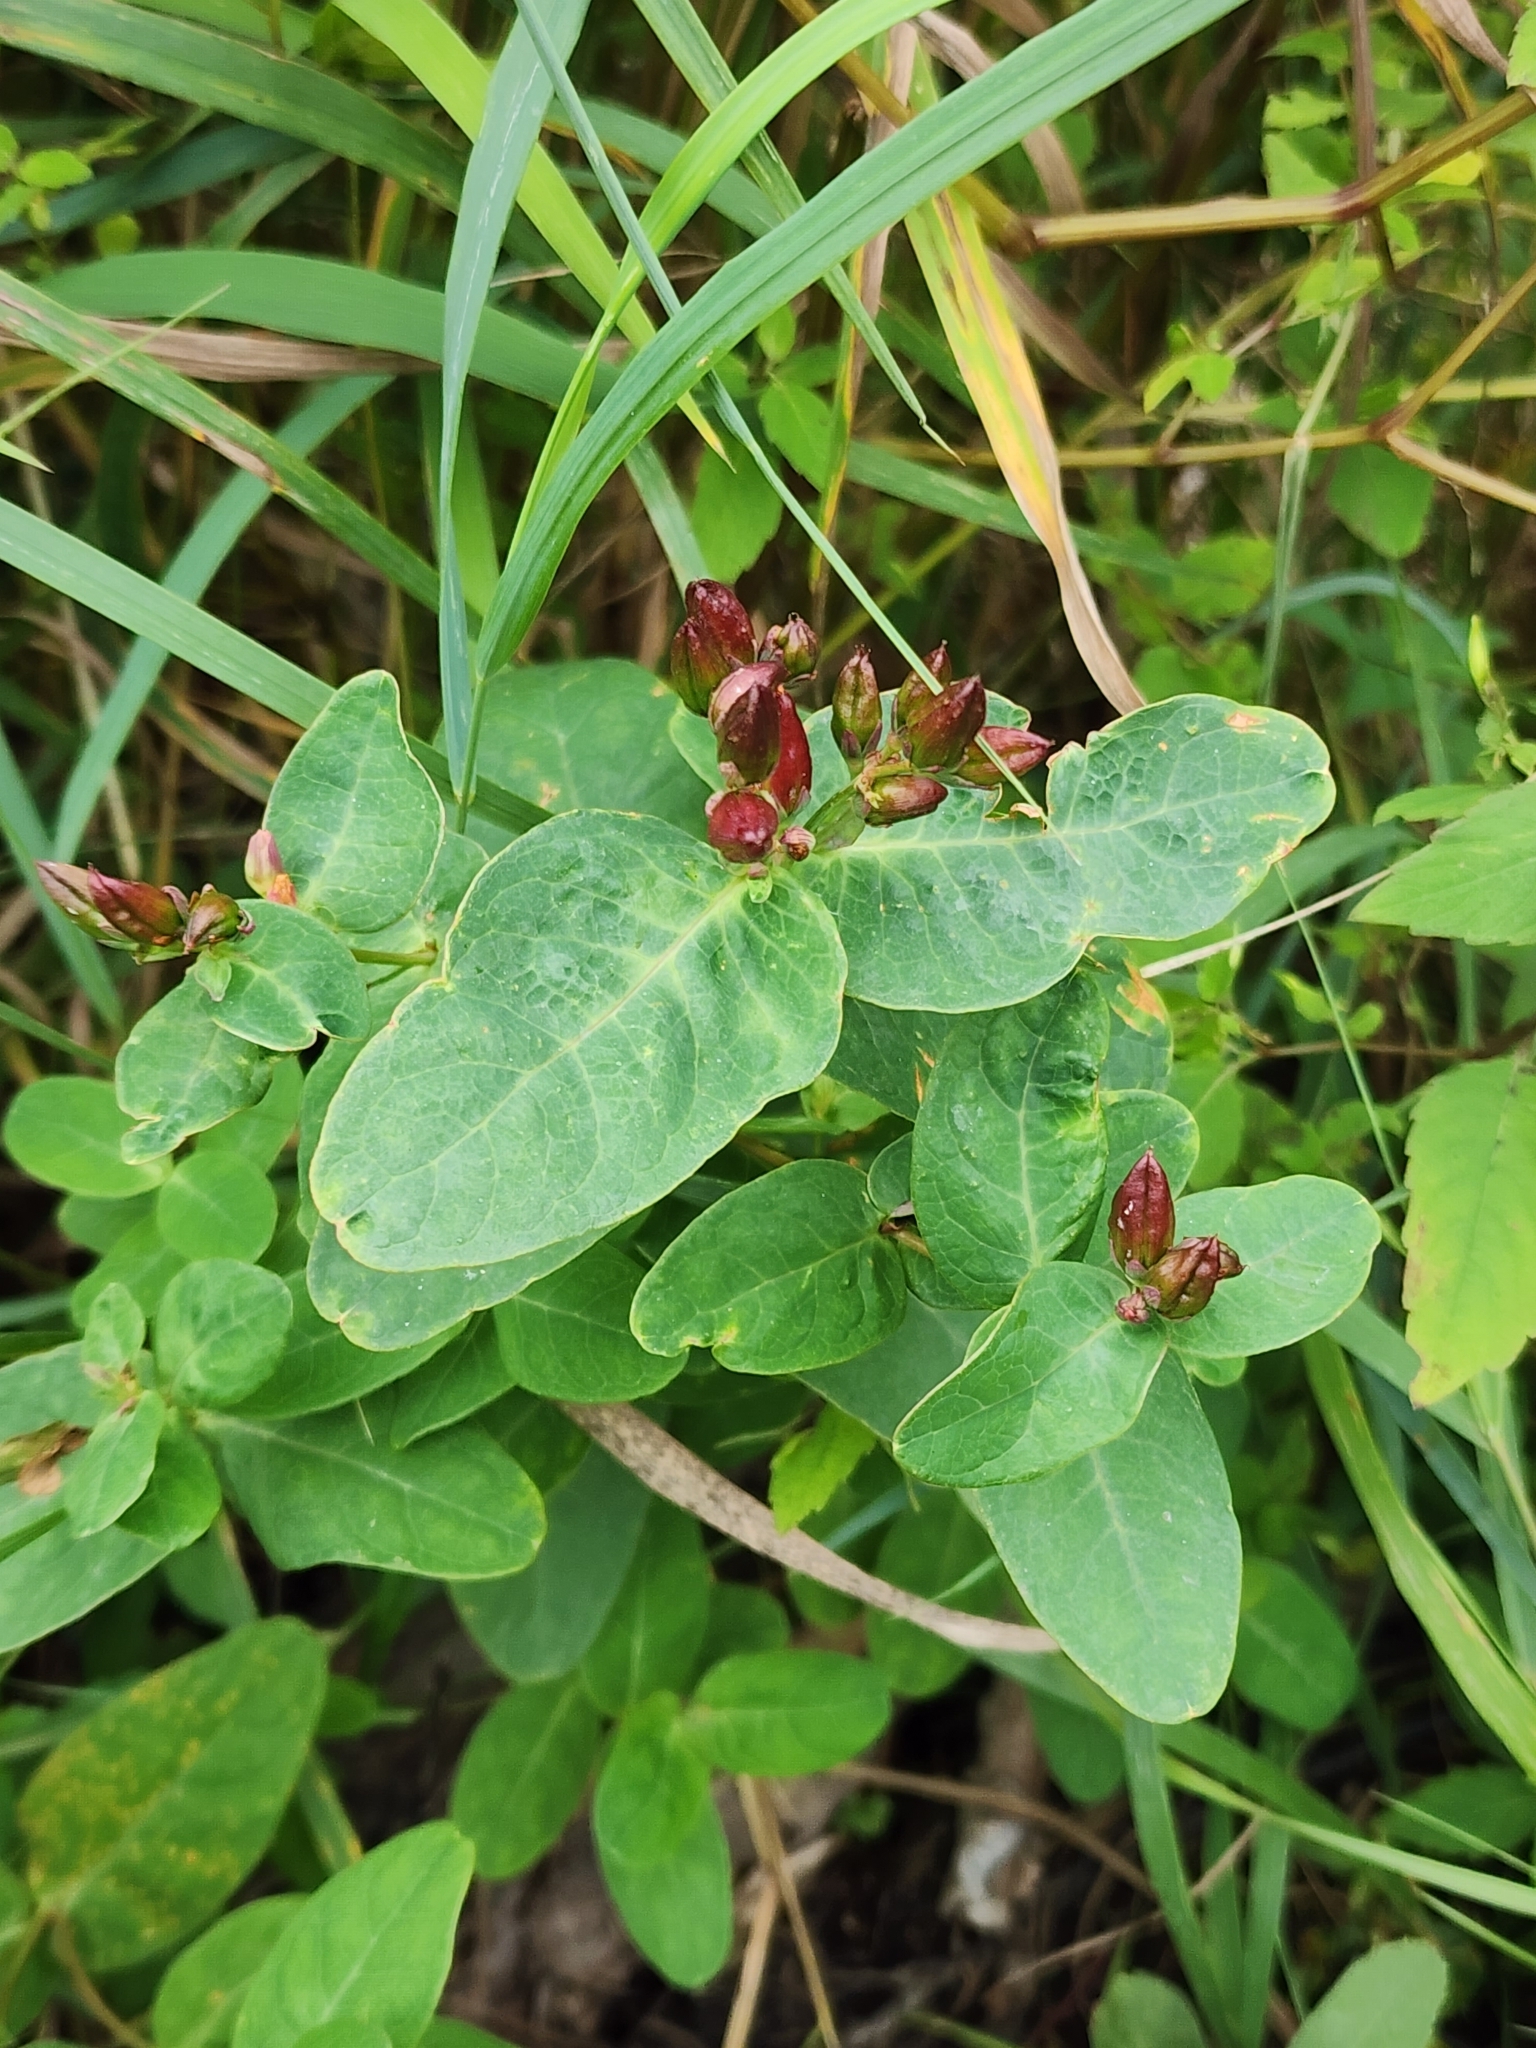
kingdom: Plantae
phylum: Tracheophyta
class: Magnoliopsida
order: Malpighiales
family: Hypericaceae
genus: Triadenum
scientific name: Triadenum fraseri
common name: Fraser's marsh st. johnswort
